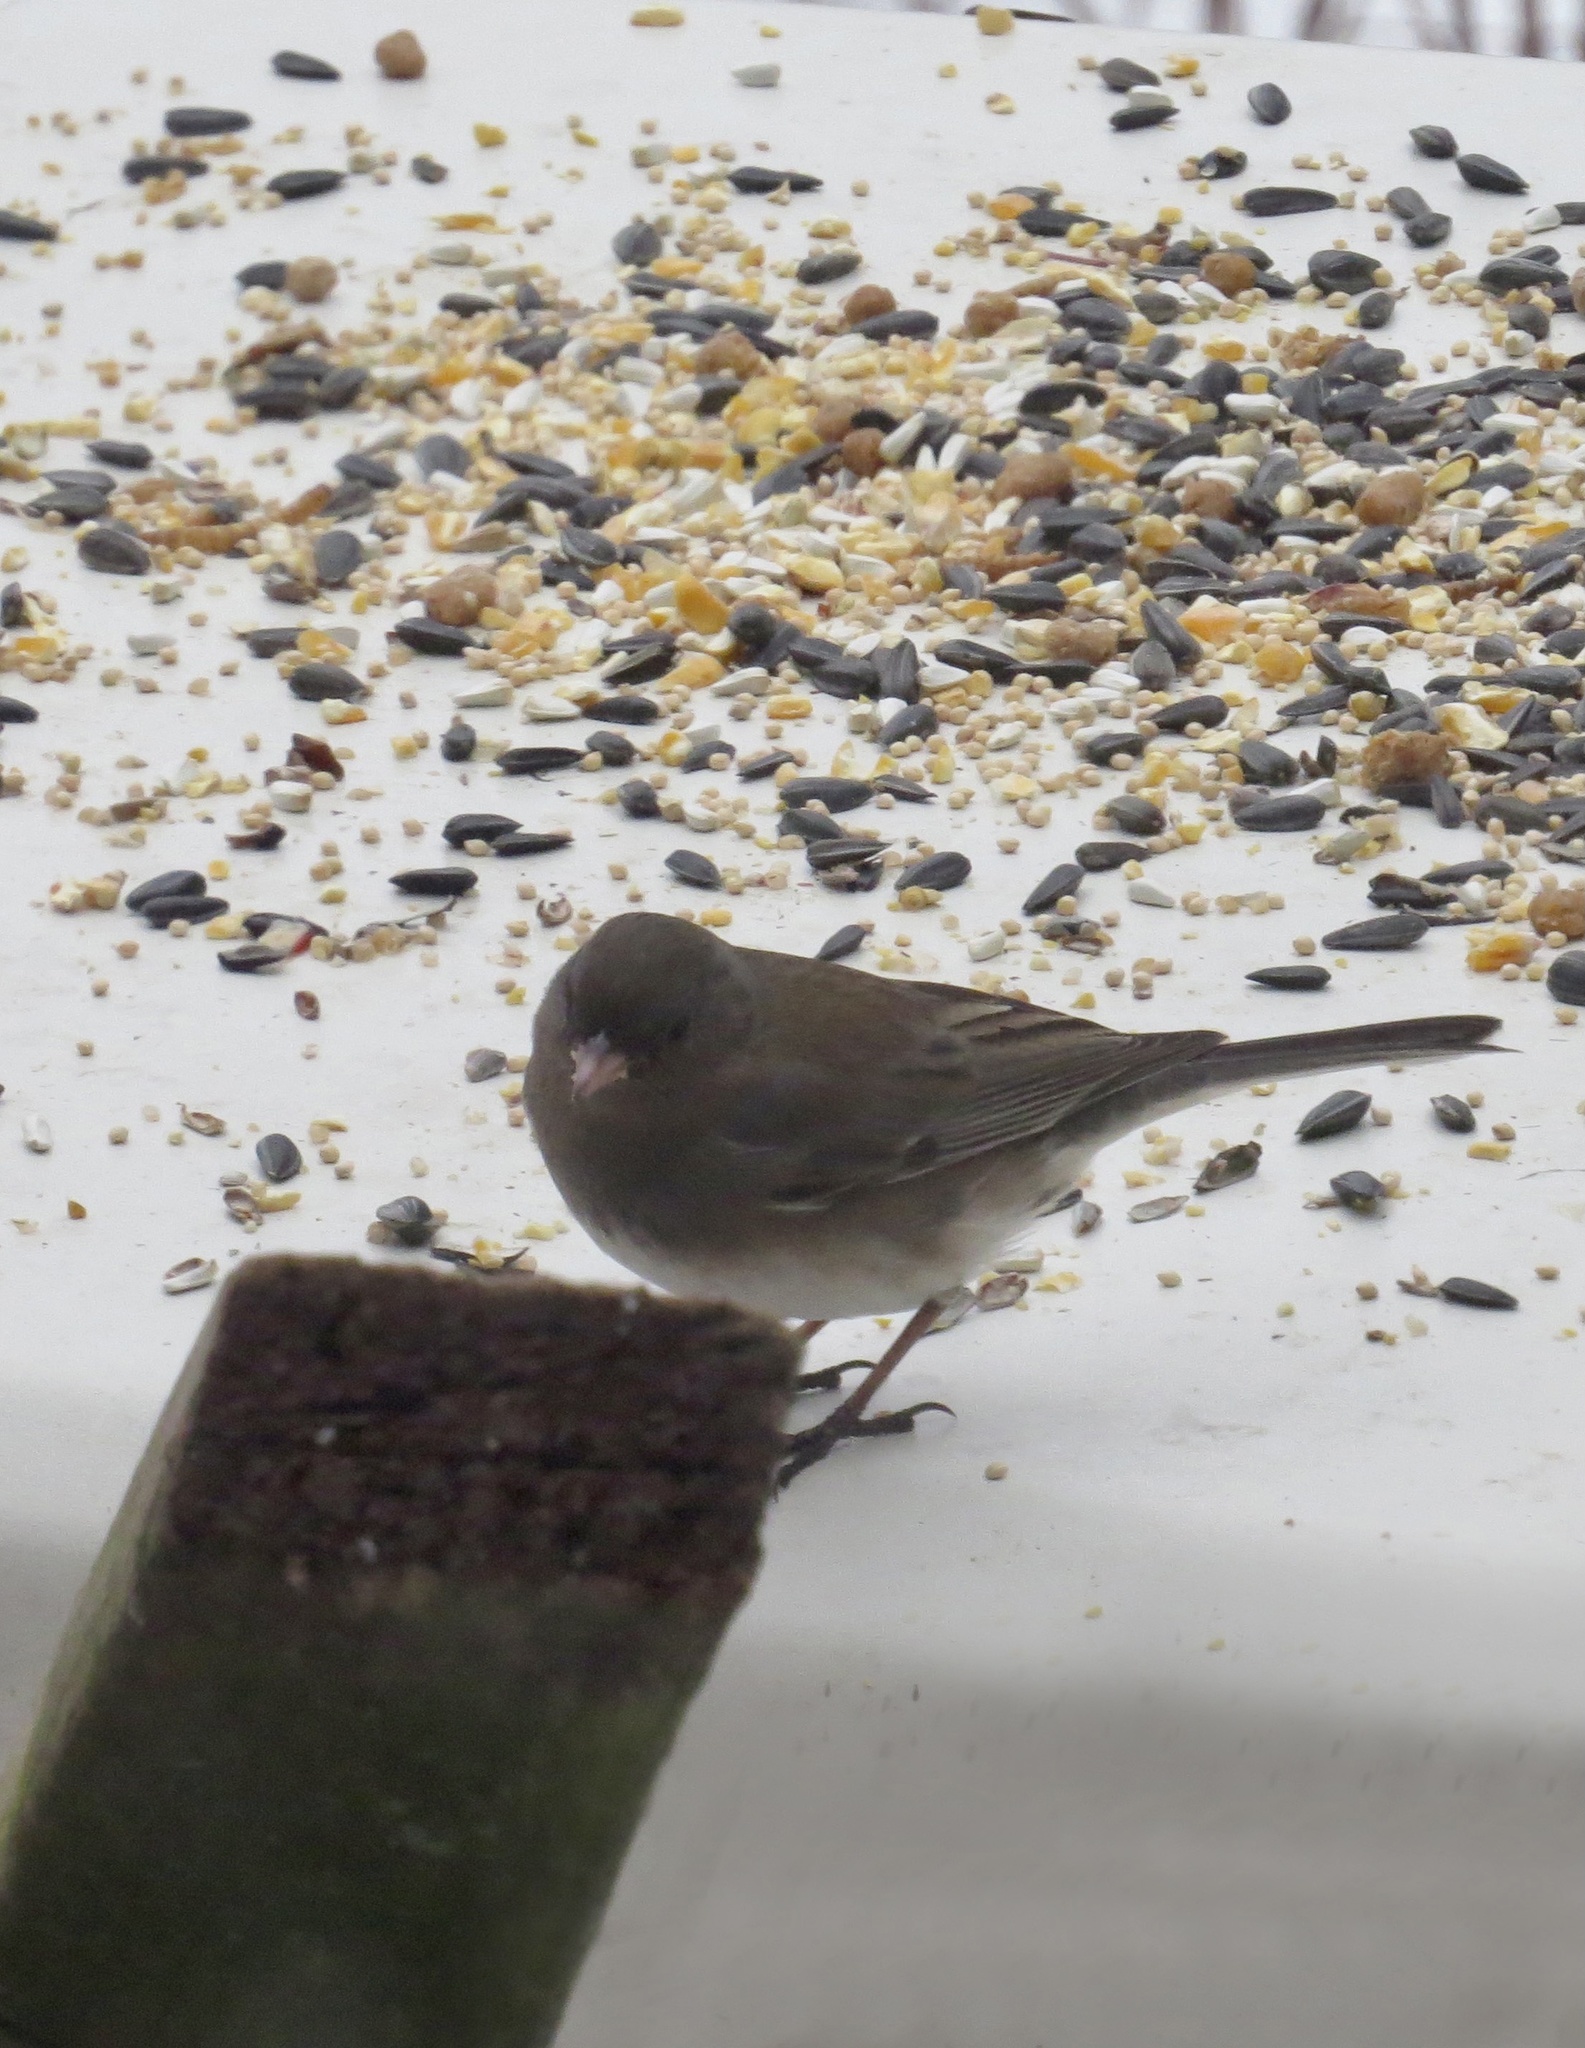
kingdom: Animalia
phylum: Chordata
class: Aves
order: Passeriformes
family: Passerellidae
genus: Junco
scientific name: Junco hyemalis
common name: Dark-eyed junco
